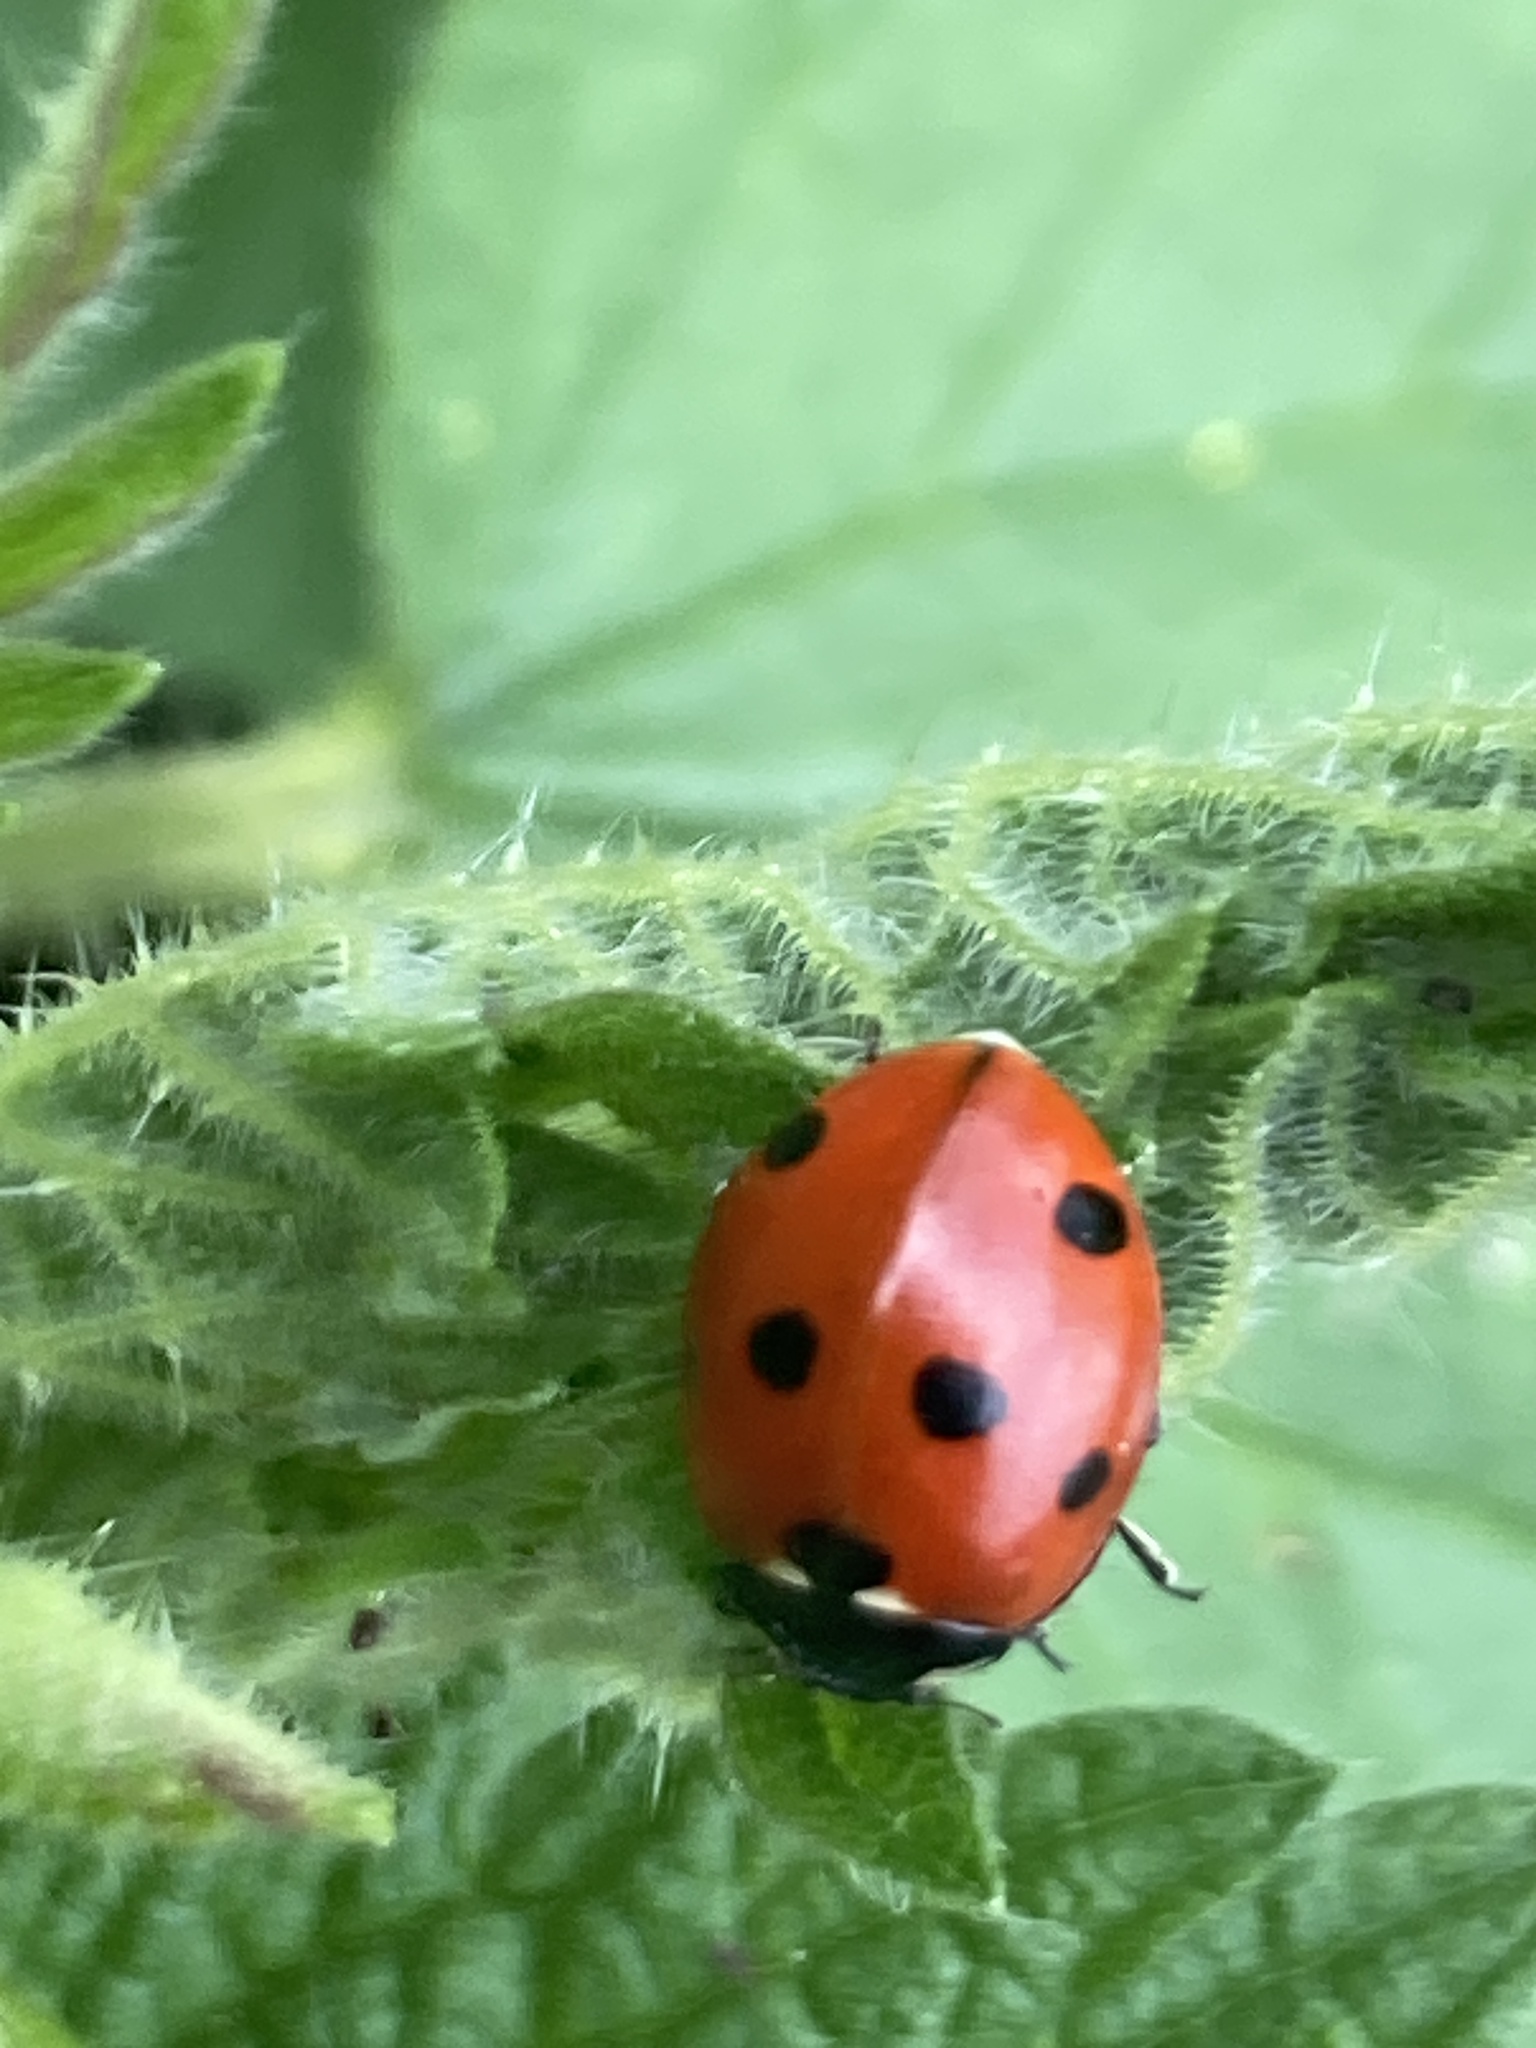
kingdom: Animalia
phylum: Arthropoda
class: Insecta
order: Coleoptera
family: Coccinellidae
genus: Coccinella
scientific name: Coccinella septempunctata
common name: Sevenspotted lady beetle
